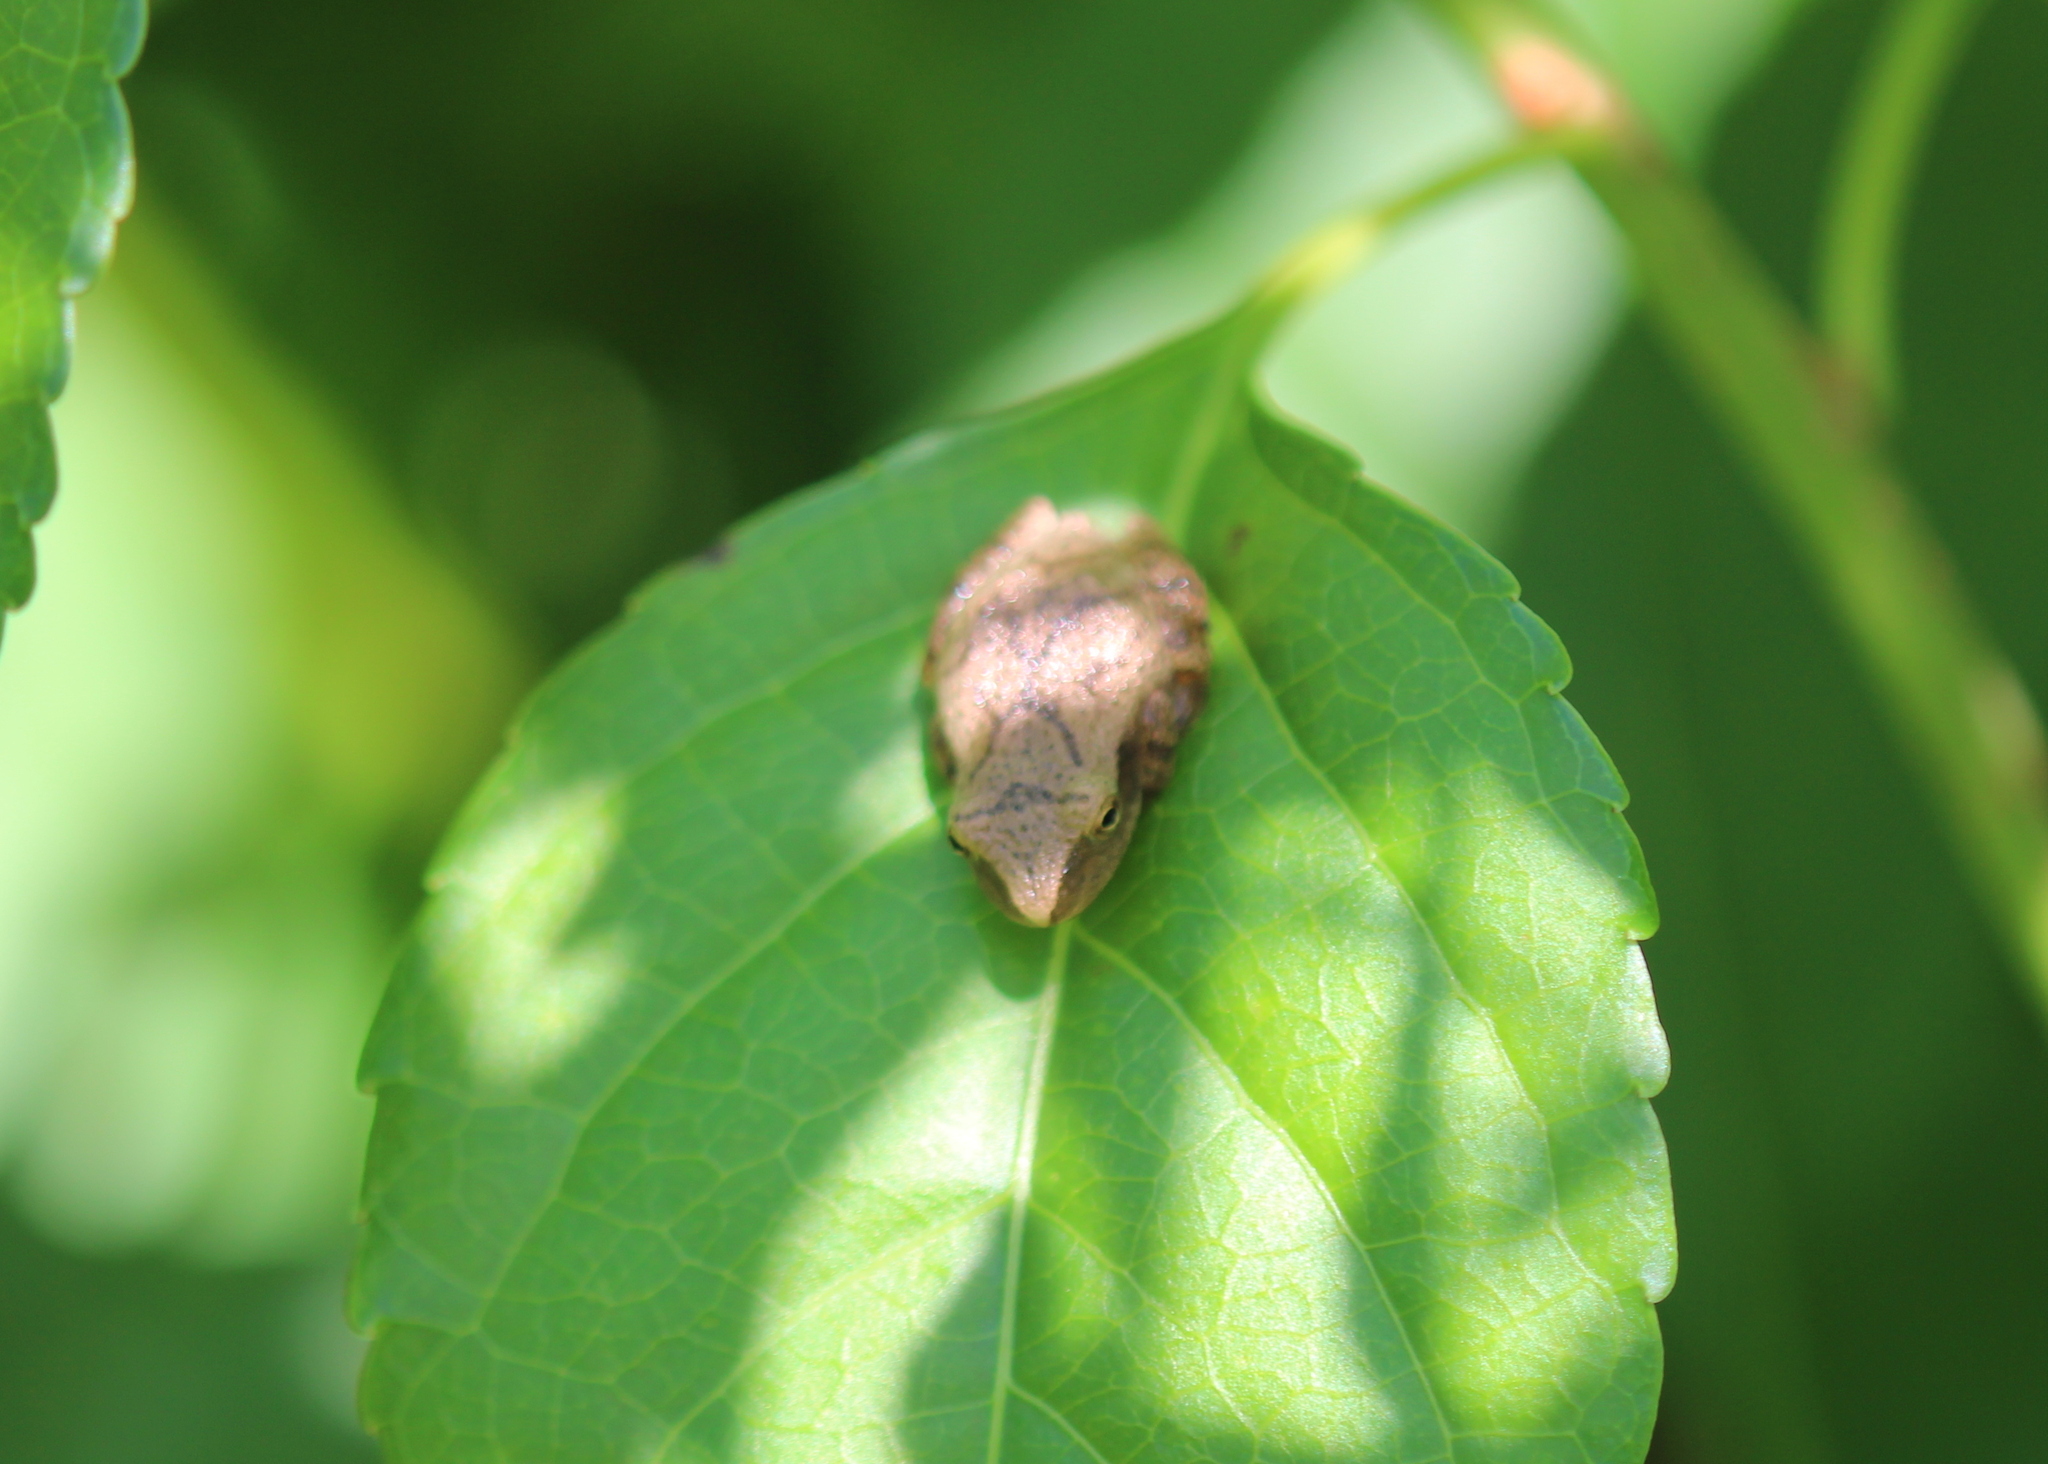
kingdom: Animalia
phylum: Chordata
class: Amphibia
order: Anura
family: Hylidae
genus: Pseudacris
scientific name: Pseudacris crucifer
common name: Spring peeper
